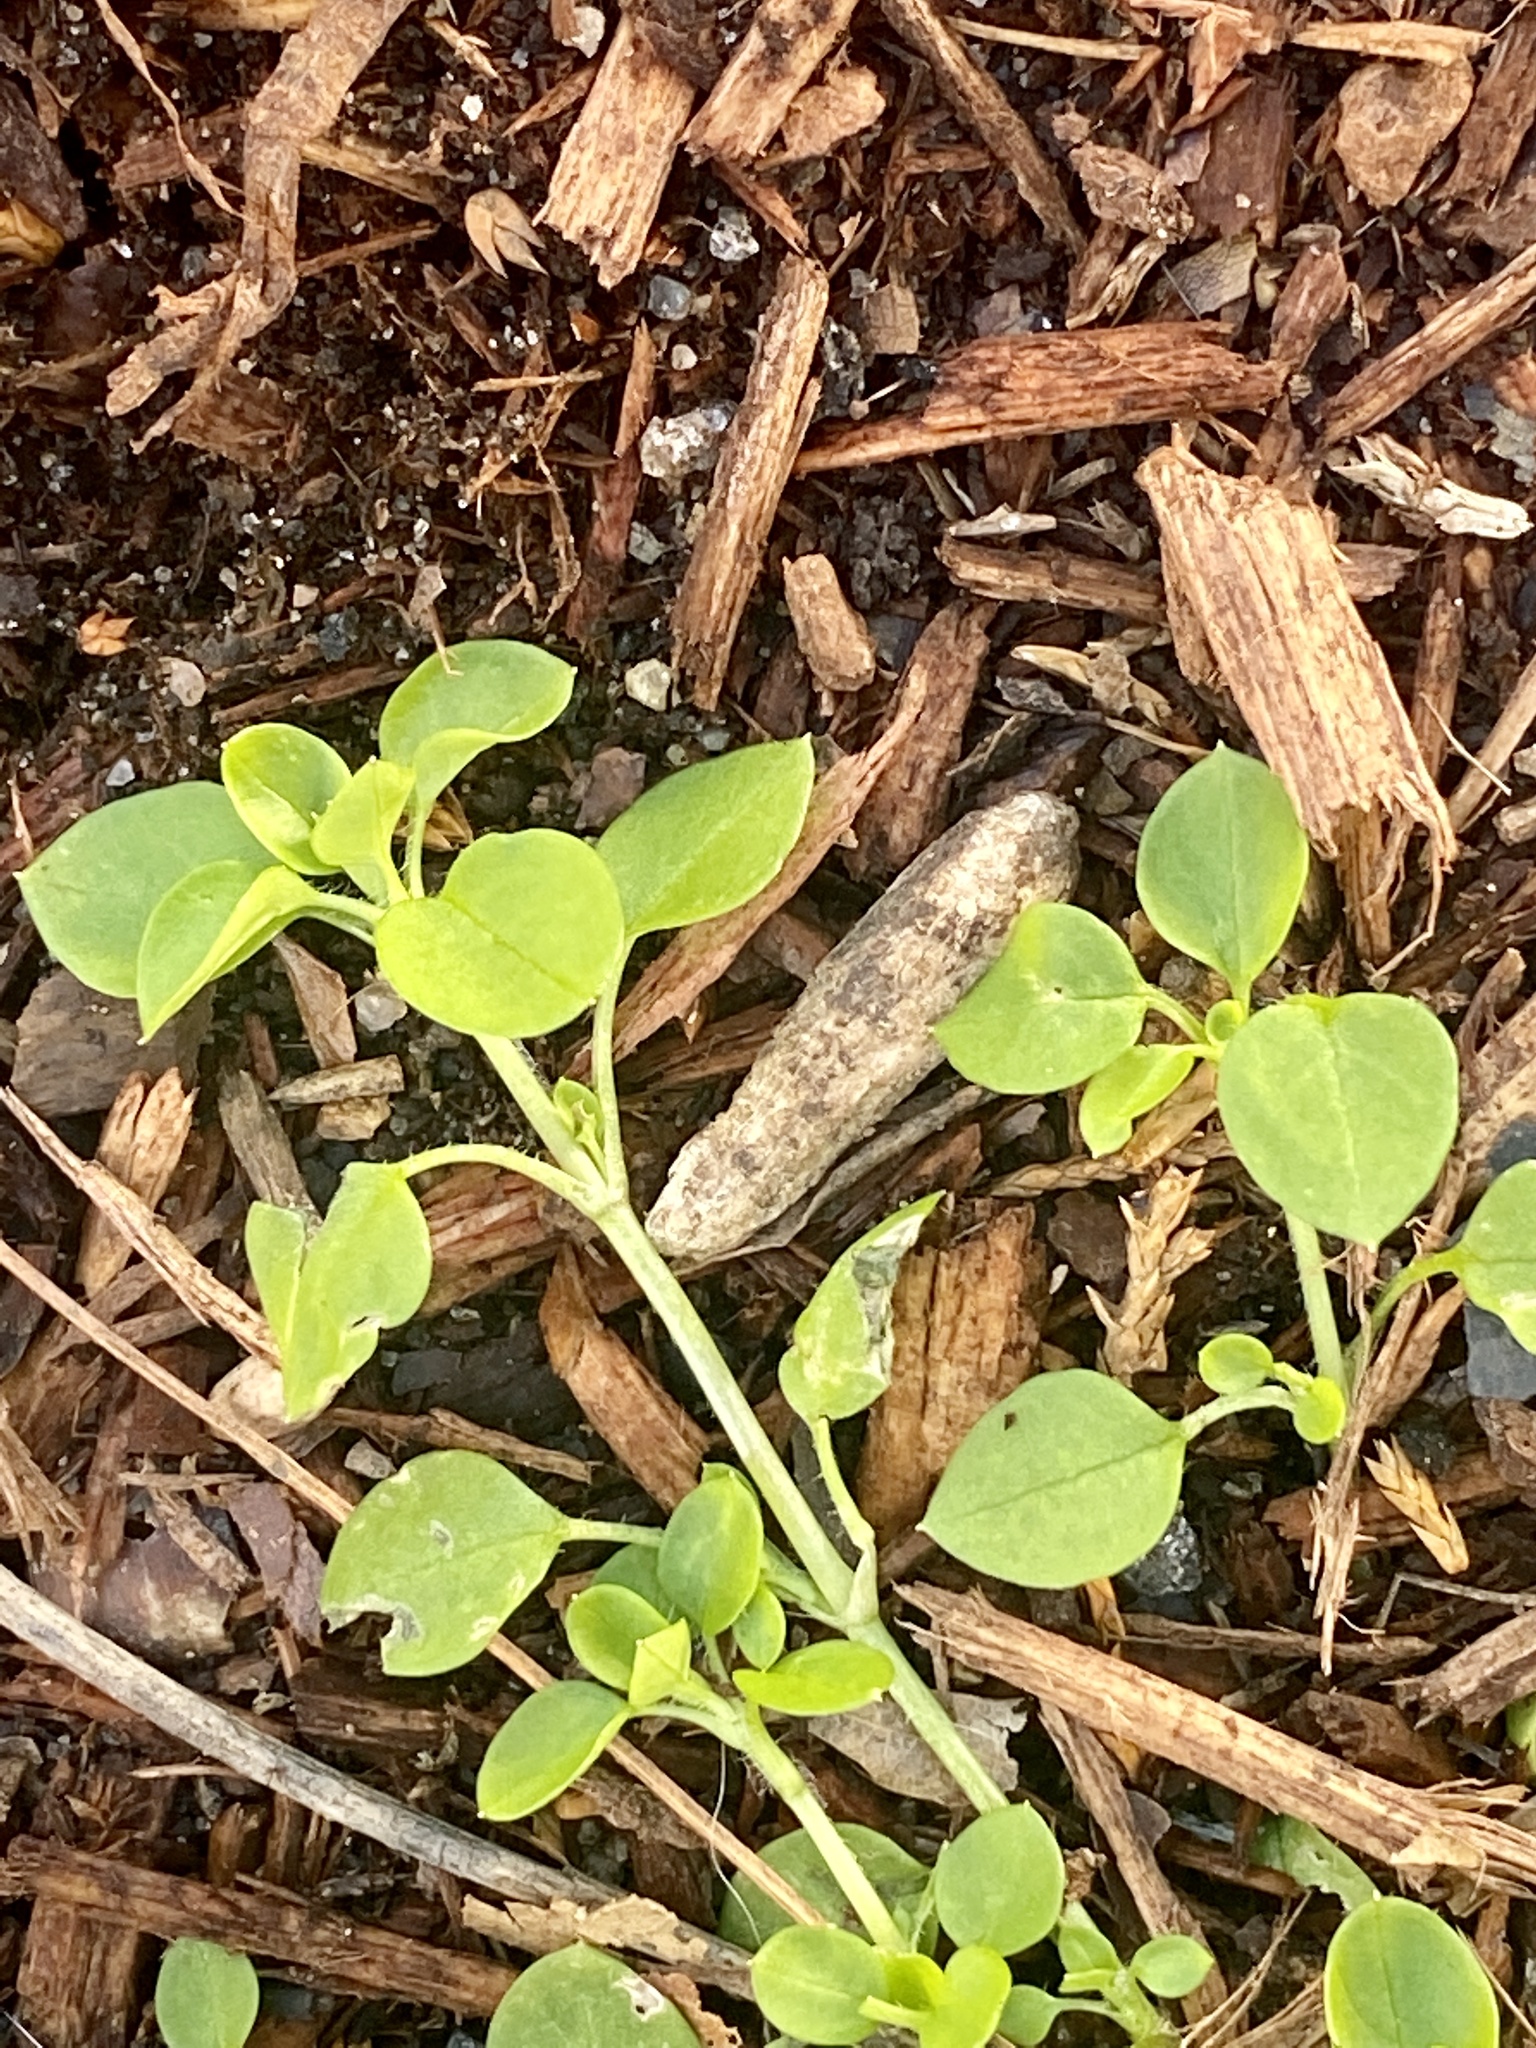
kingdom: Plantae
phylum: Tracheophyta
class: Magnoliopsida
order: Caryophyllales
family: Caryophyllaceae
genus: Stellaria
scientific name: Stellaria media
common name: Common chickweed
